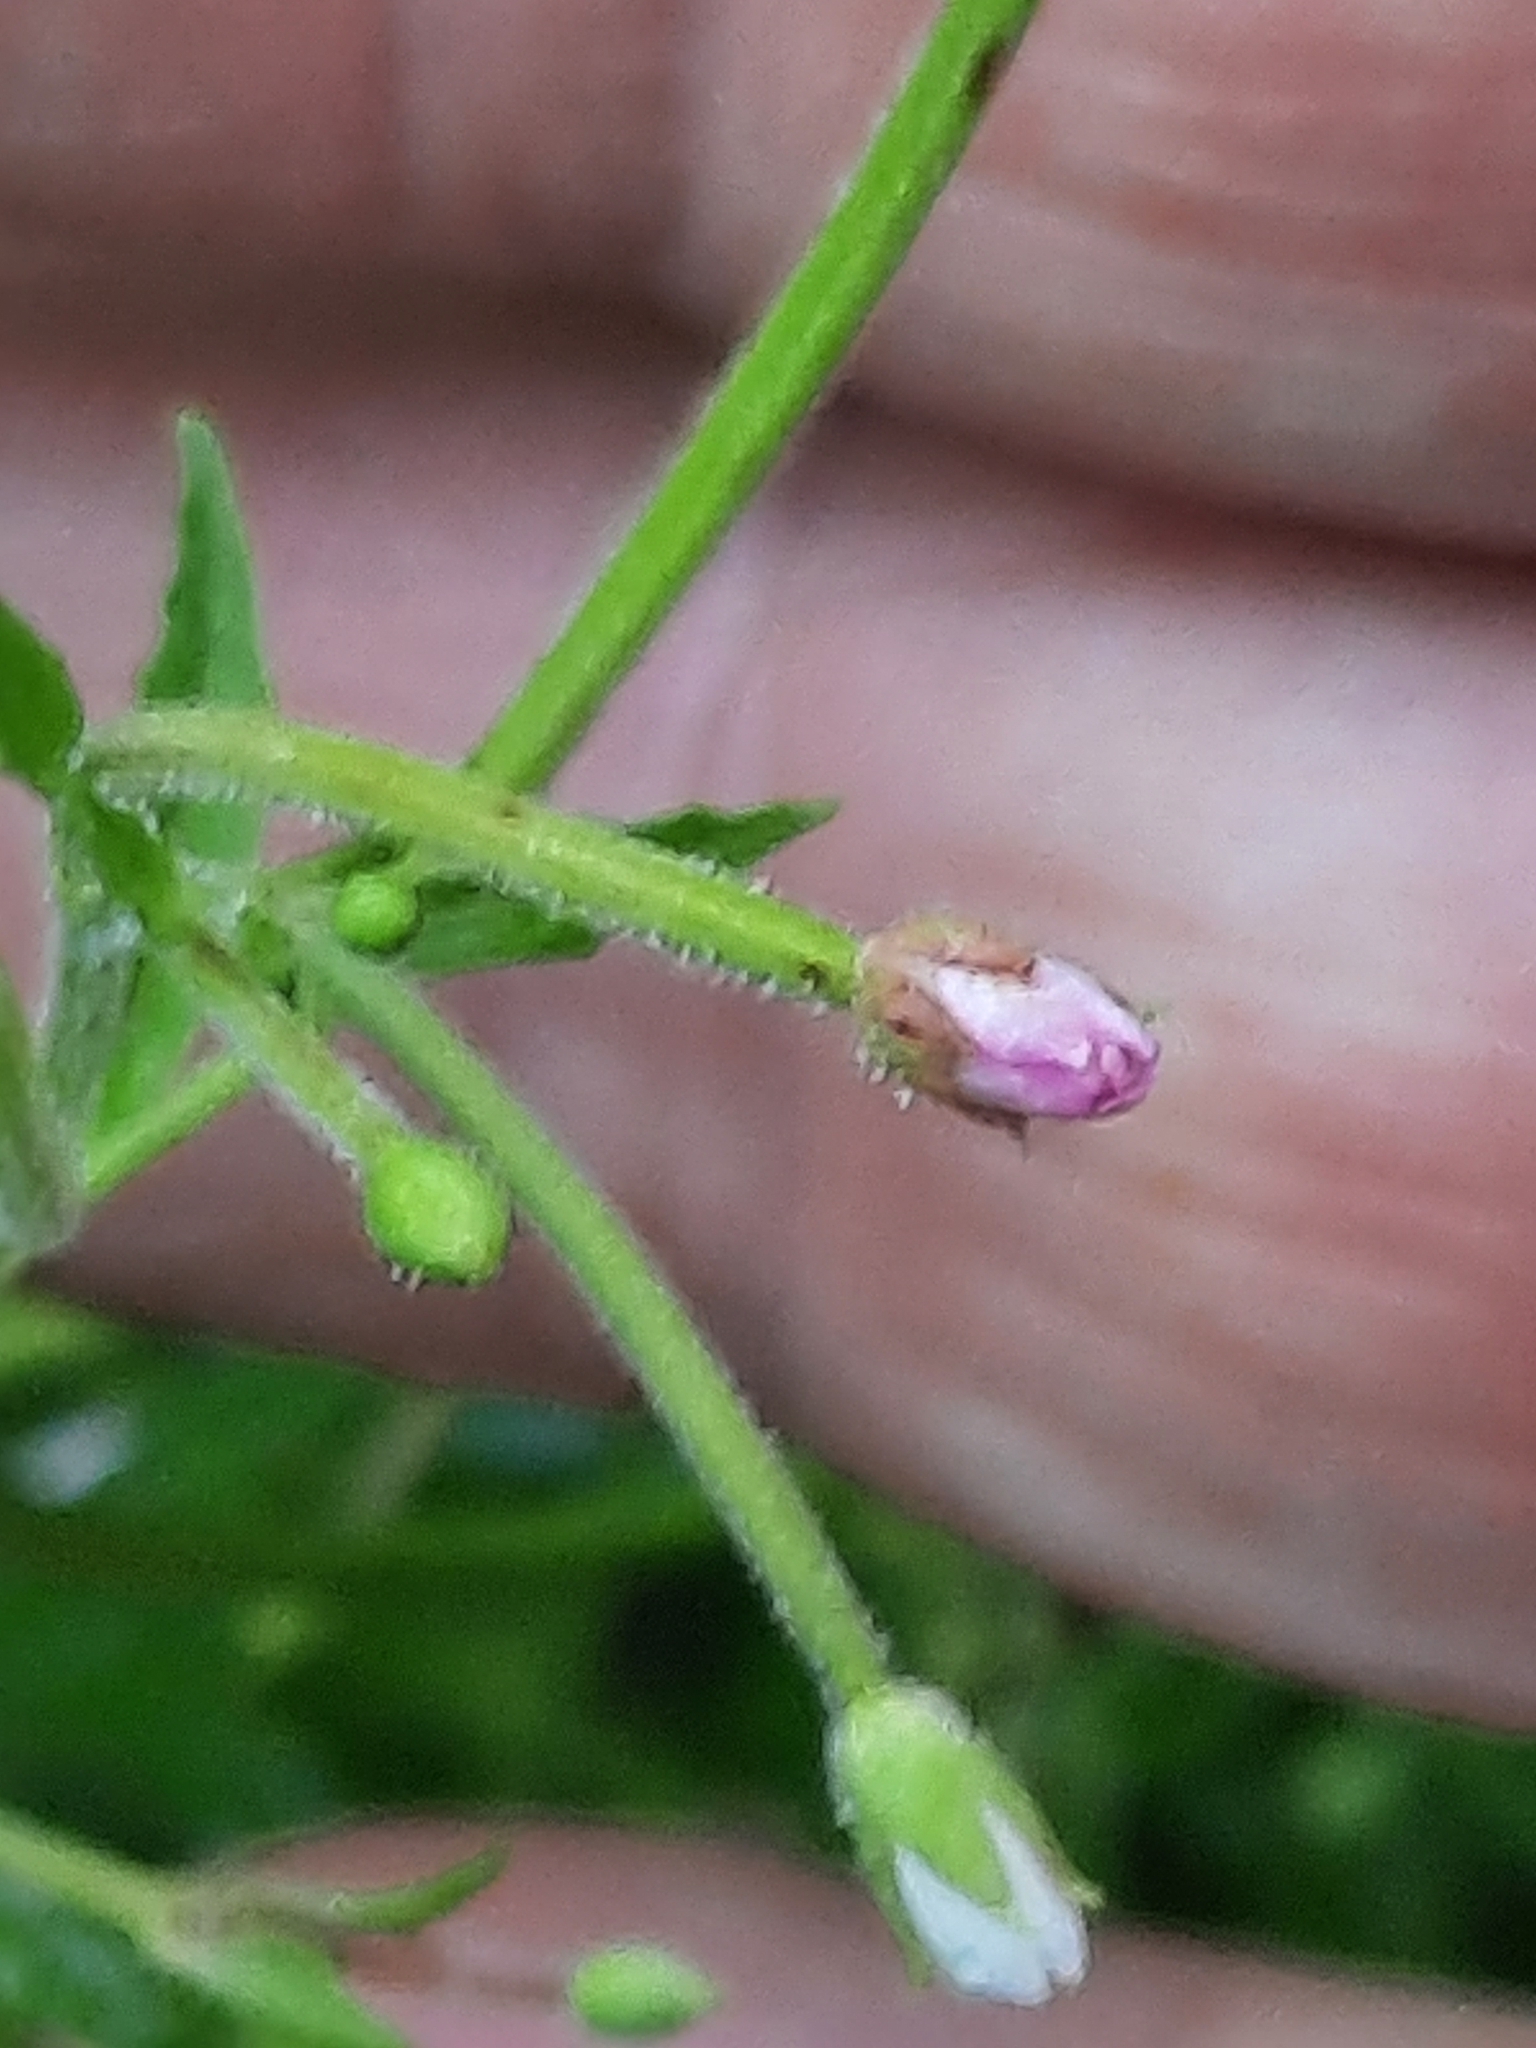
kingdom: Plantae
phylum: Tracheophyta
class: Magnoliopsida
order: Myrtales
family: Onagraceae
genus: Epilobium
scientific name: Epilobium coloratum
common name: Bronze willowherb
